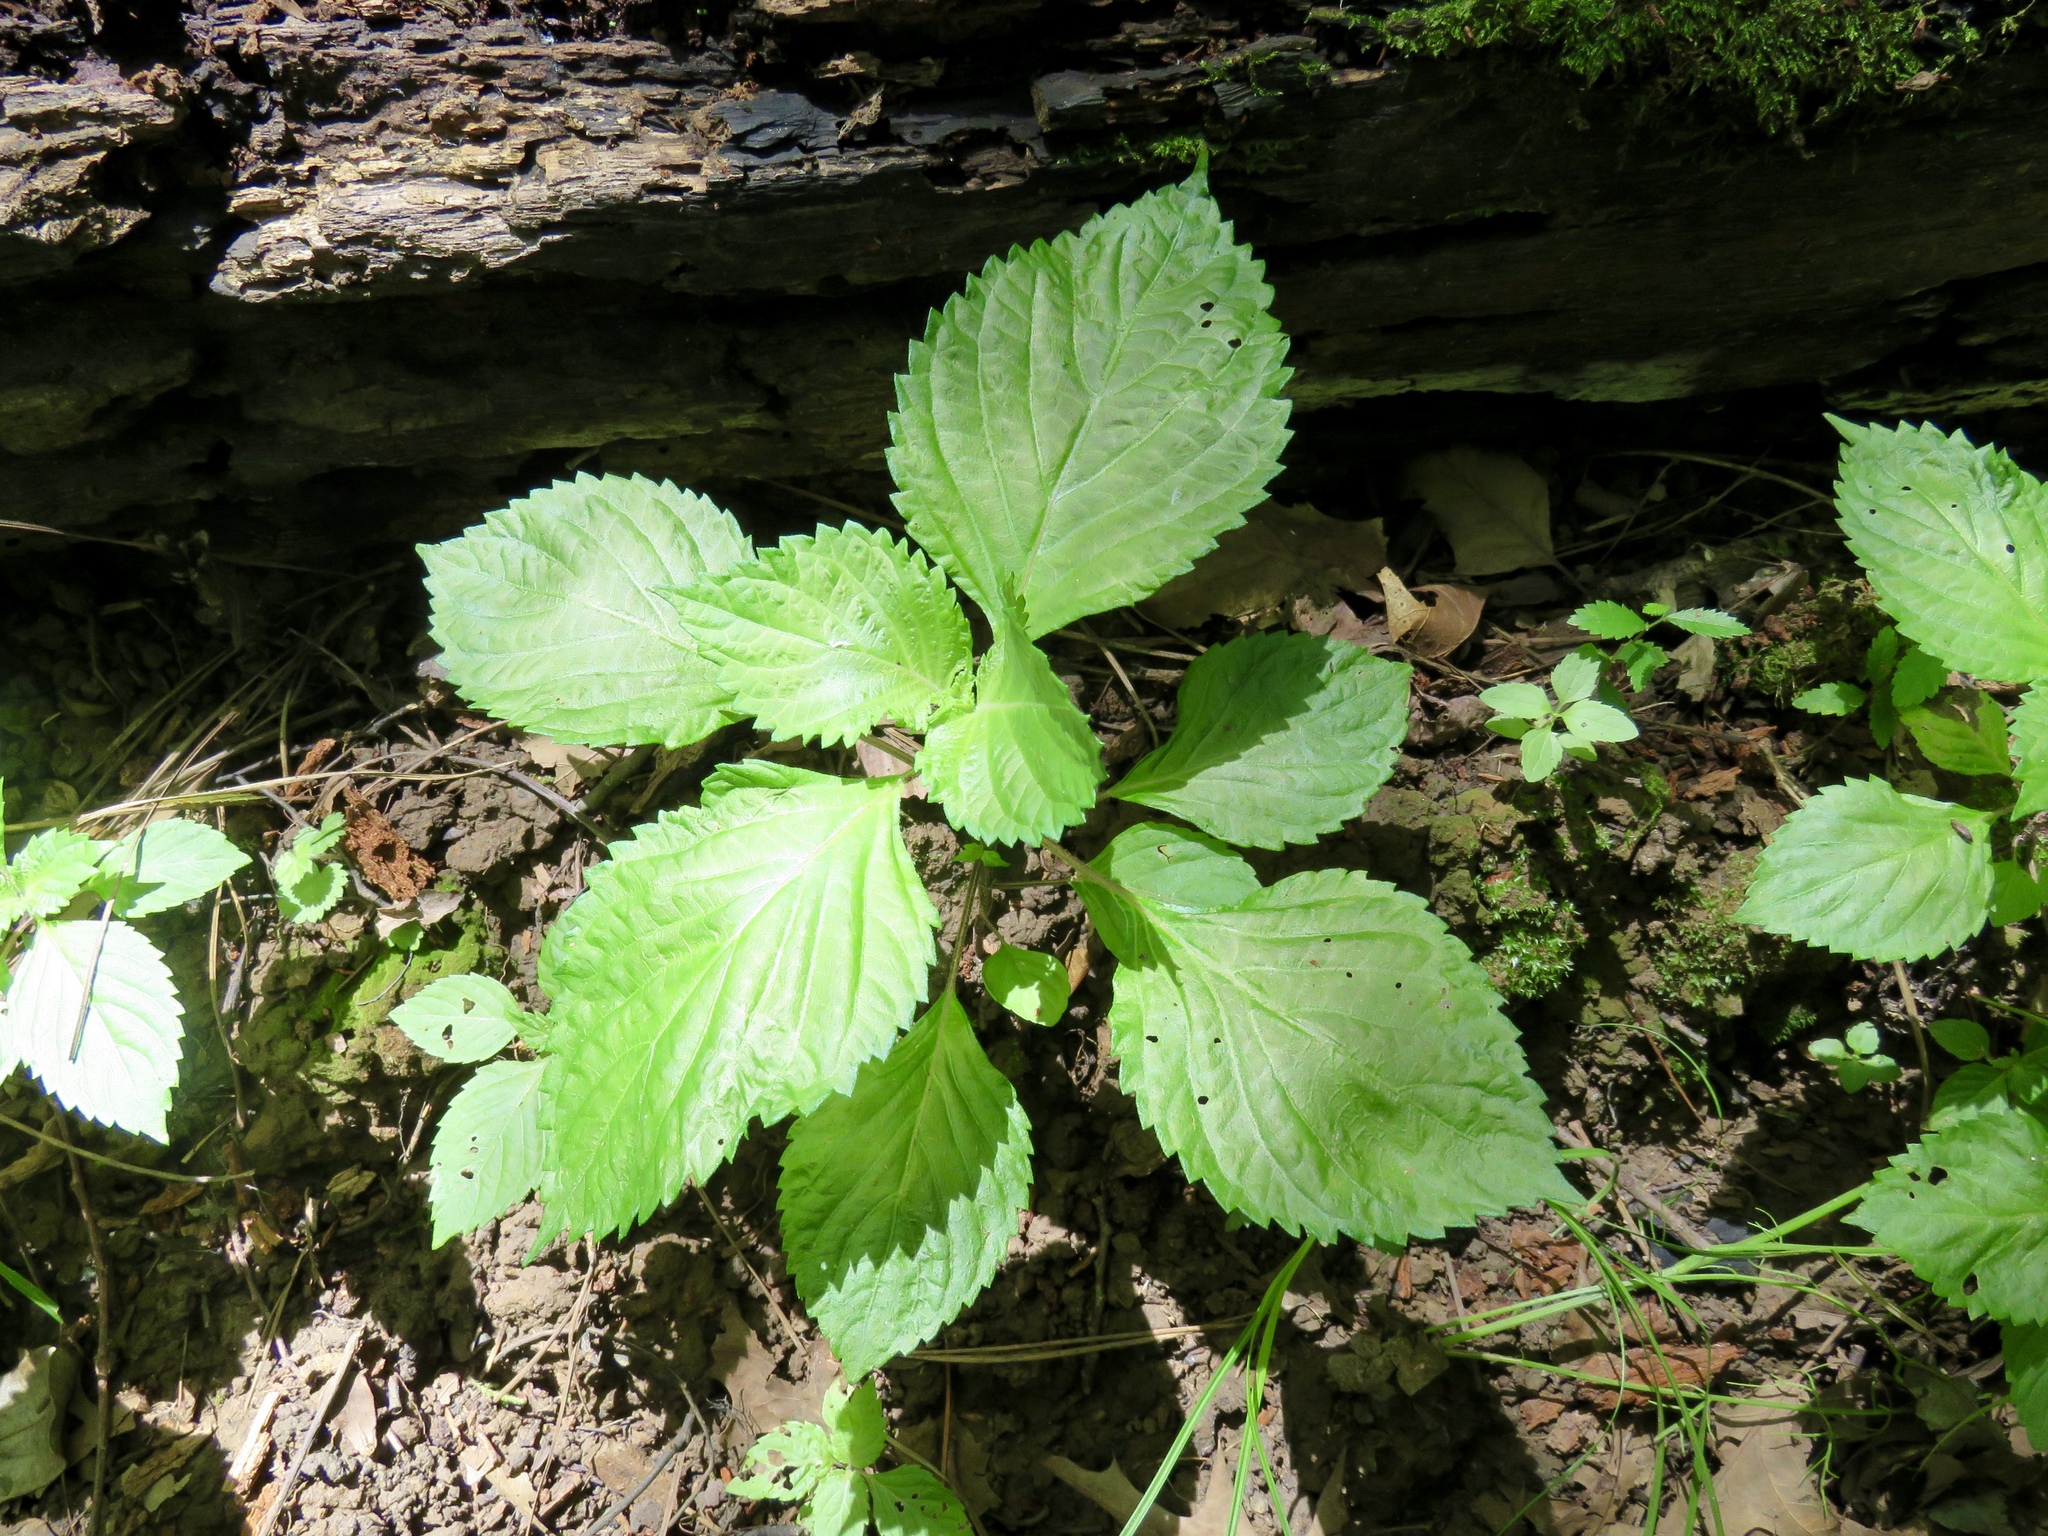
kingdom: Plantae
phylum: Tracheophyta
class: Magnoliopsida
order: Lamiales
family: Lamiaceae
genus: Perilla
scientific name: Perilla frutescens
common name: Perilla
